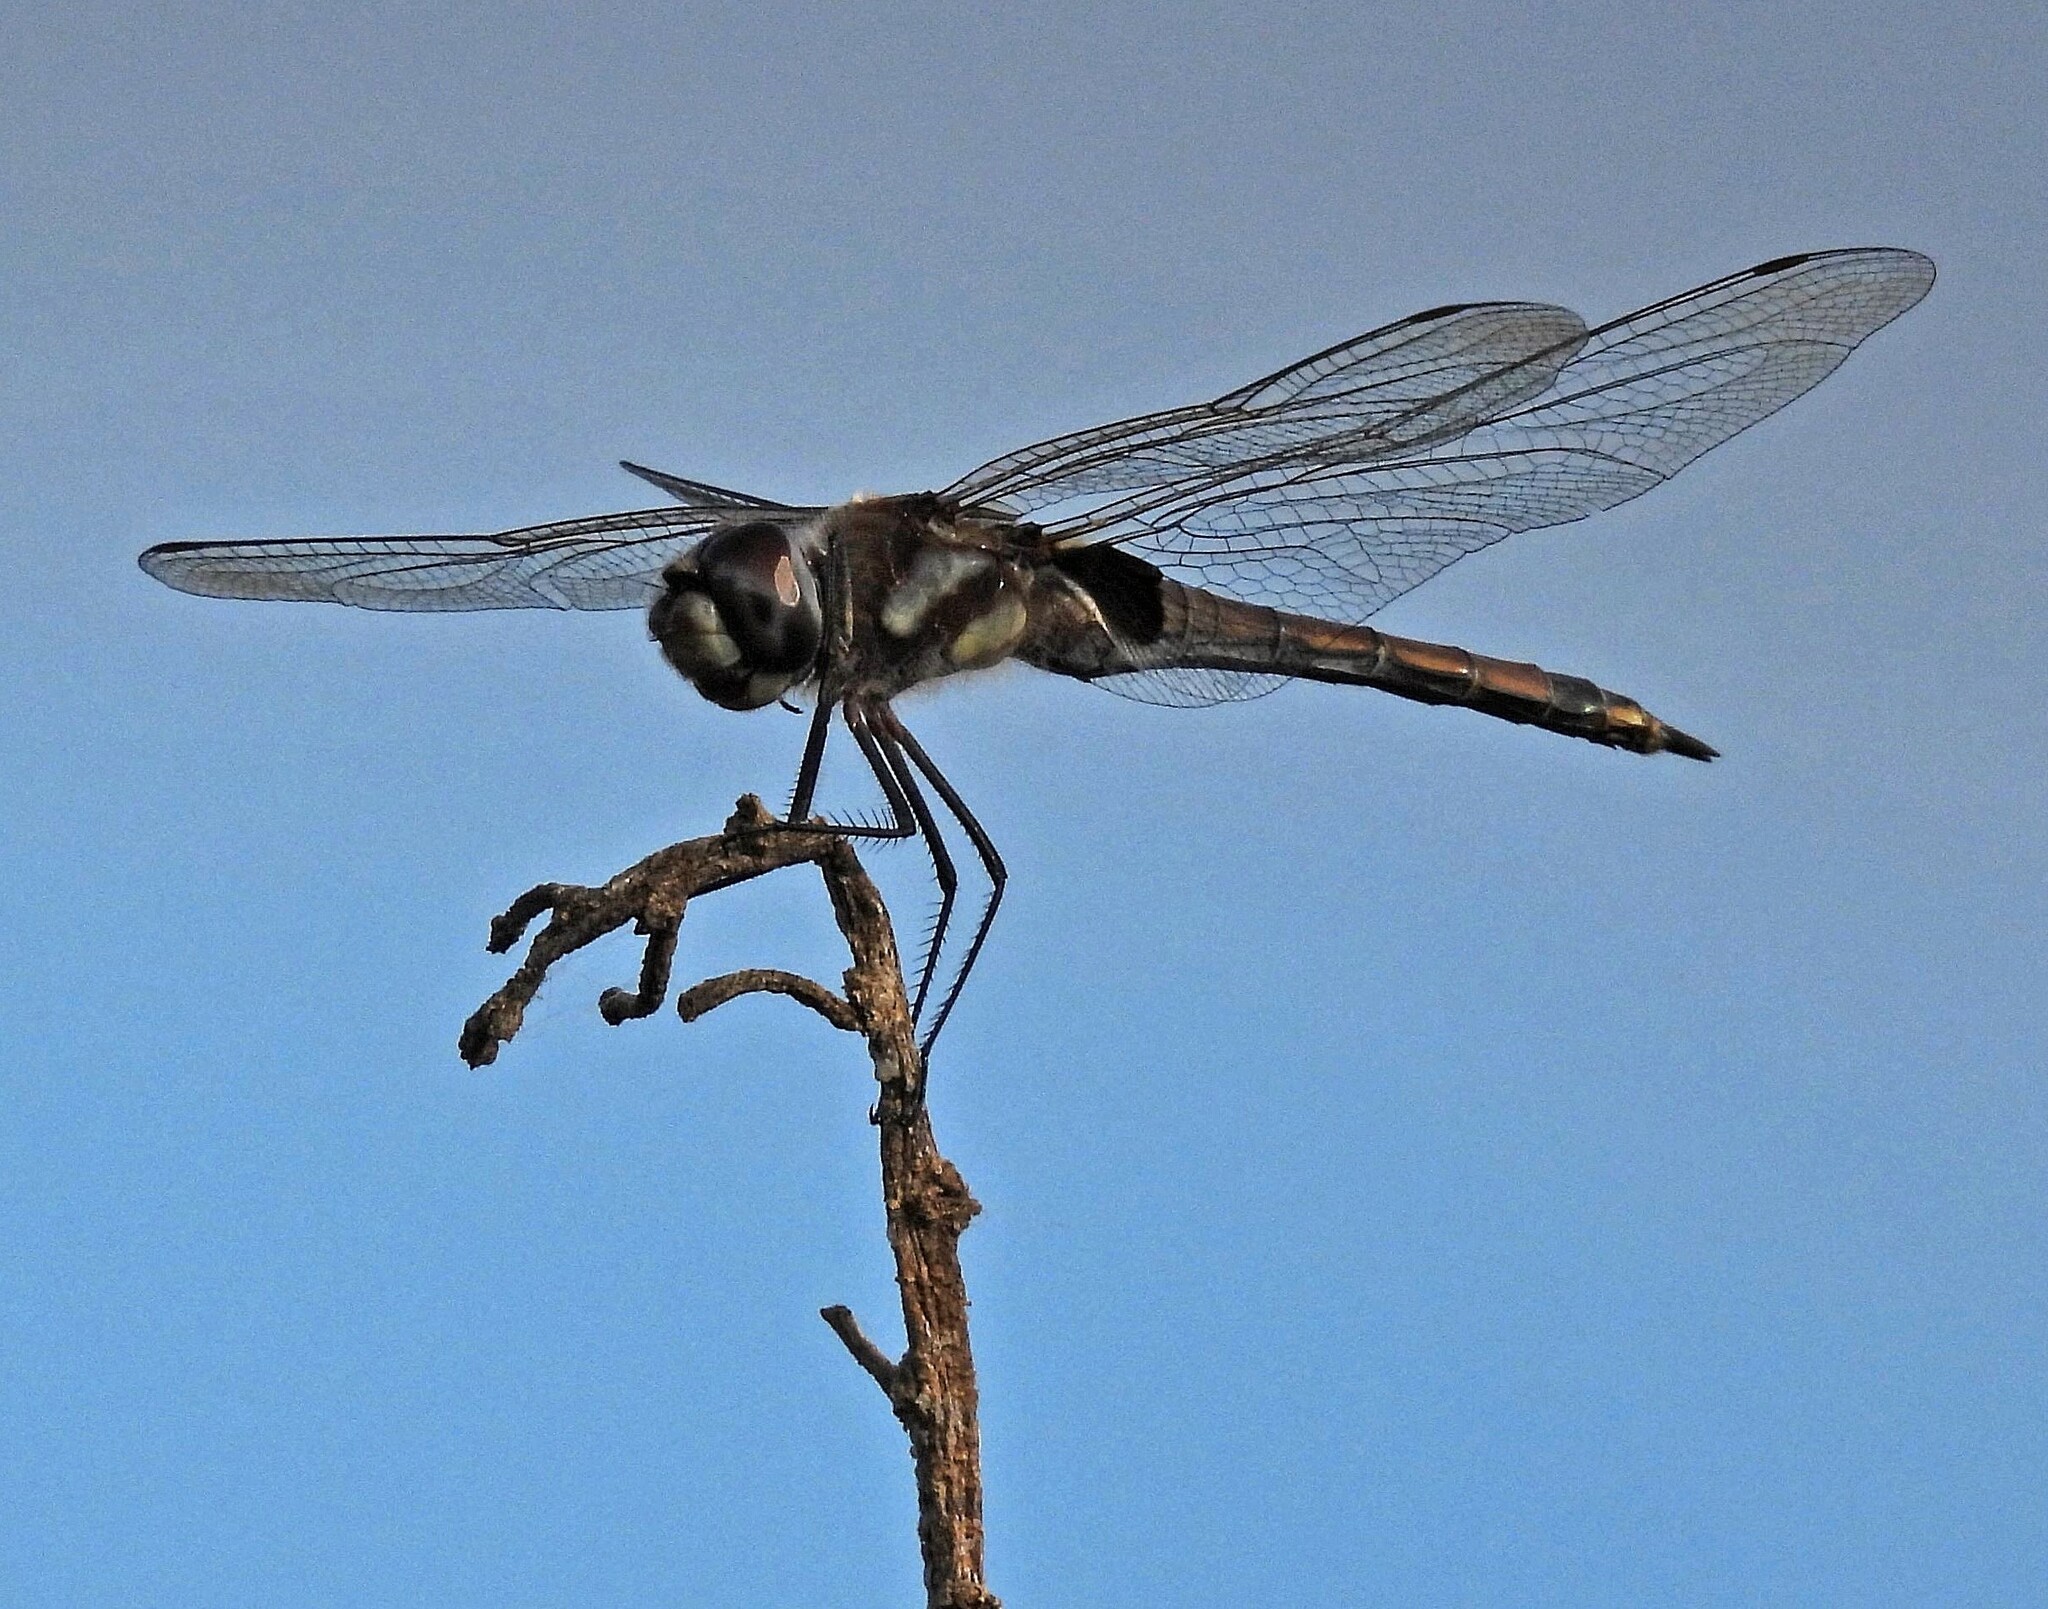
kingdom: Animalia
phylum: Arthropoda
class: Insecta
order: Odonata
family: Libellulidae
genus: Tramea
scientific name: Tramea cophysa
